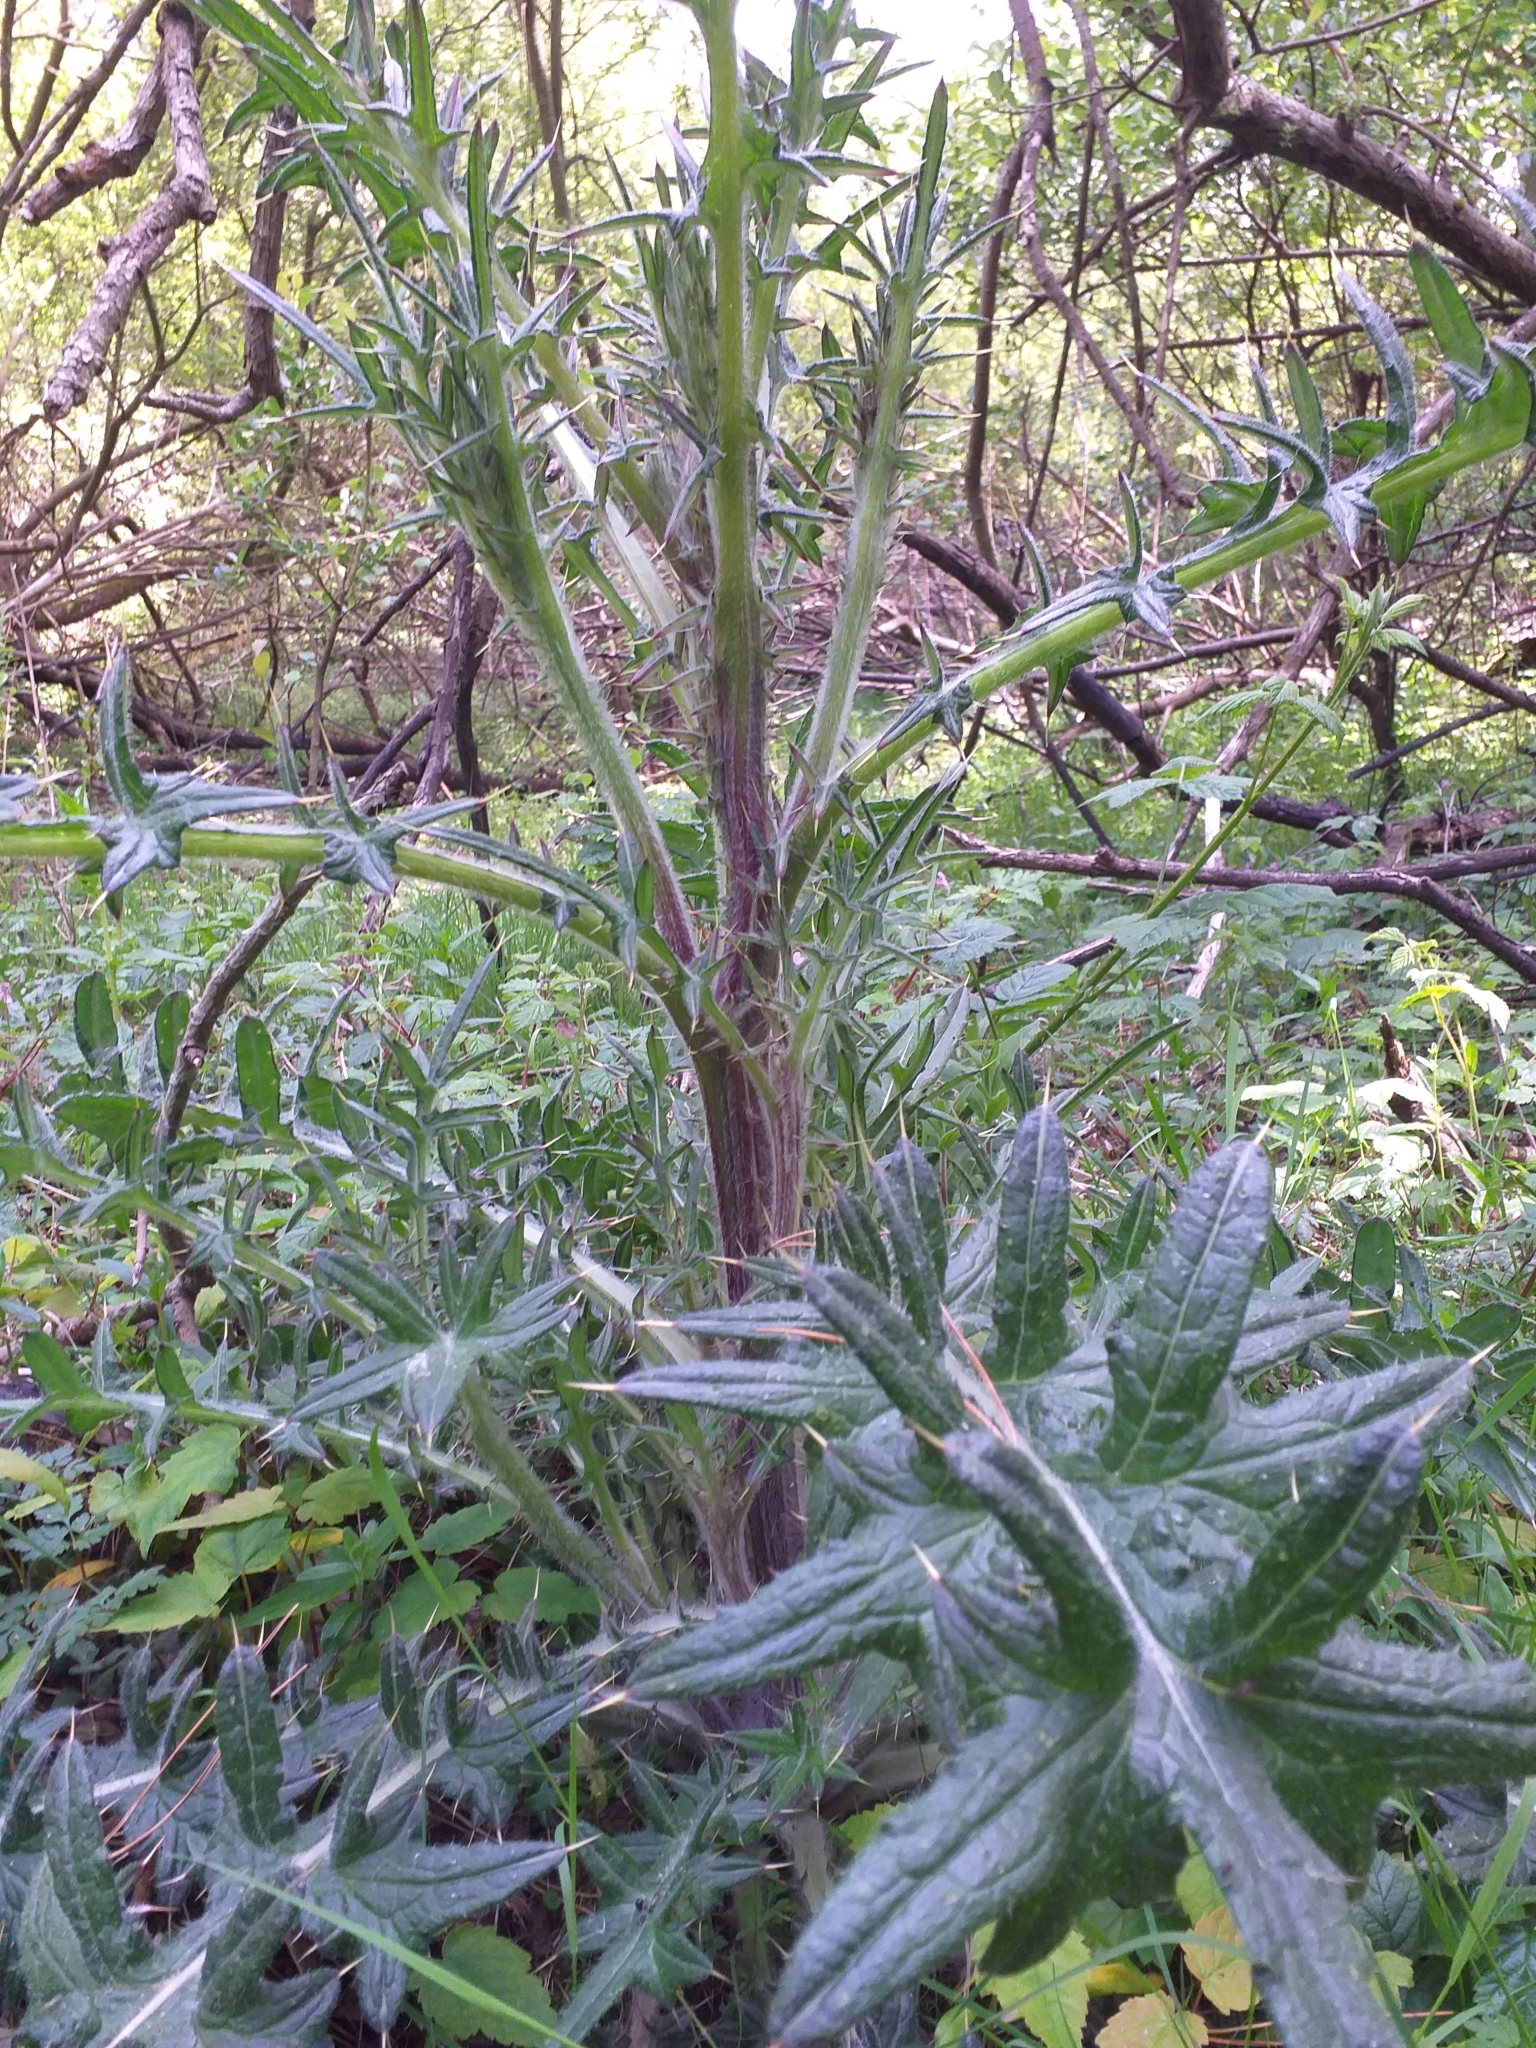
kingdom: Plantae
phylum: Tracheophyta
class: Magnoliopsida
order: Asterales
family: Asteraceae
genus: Cirsium
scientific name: Cirsium vulgare
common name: Bull thistle
